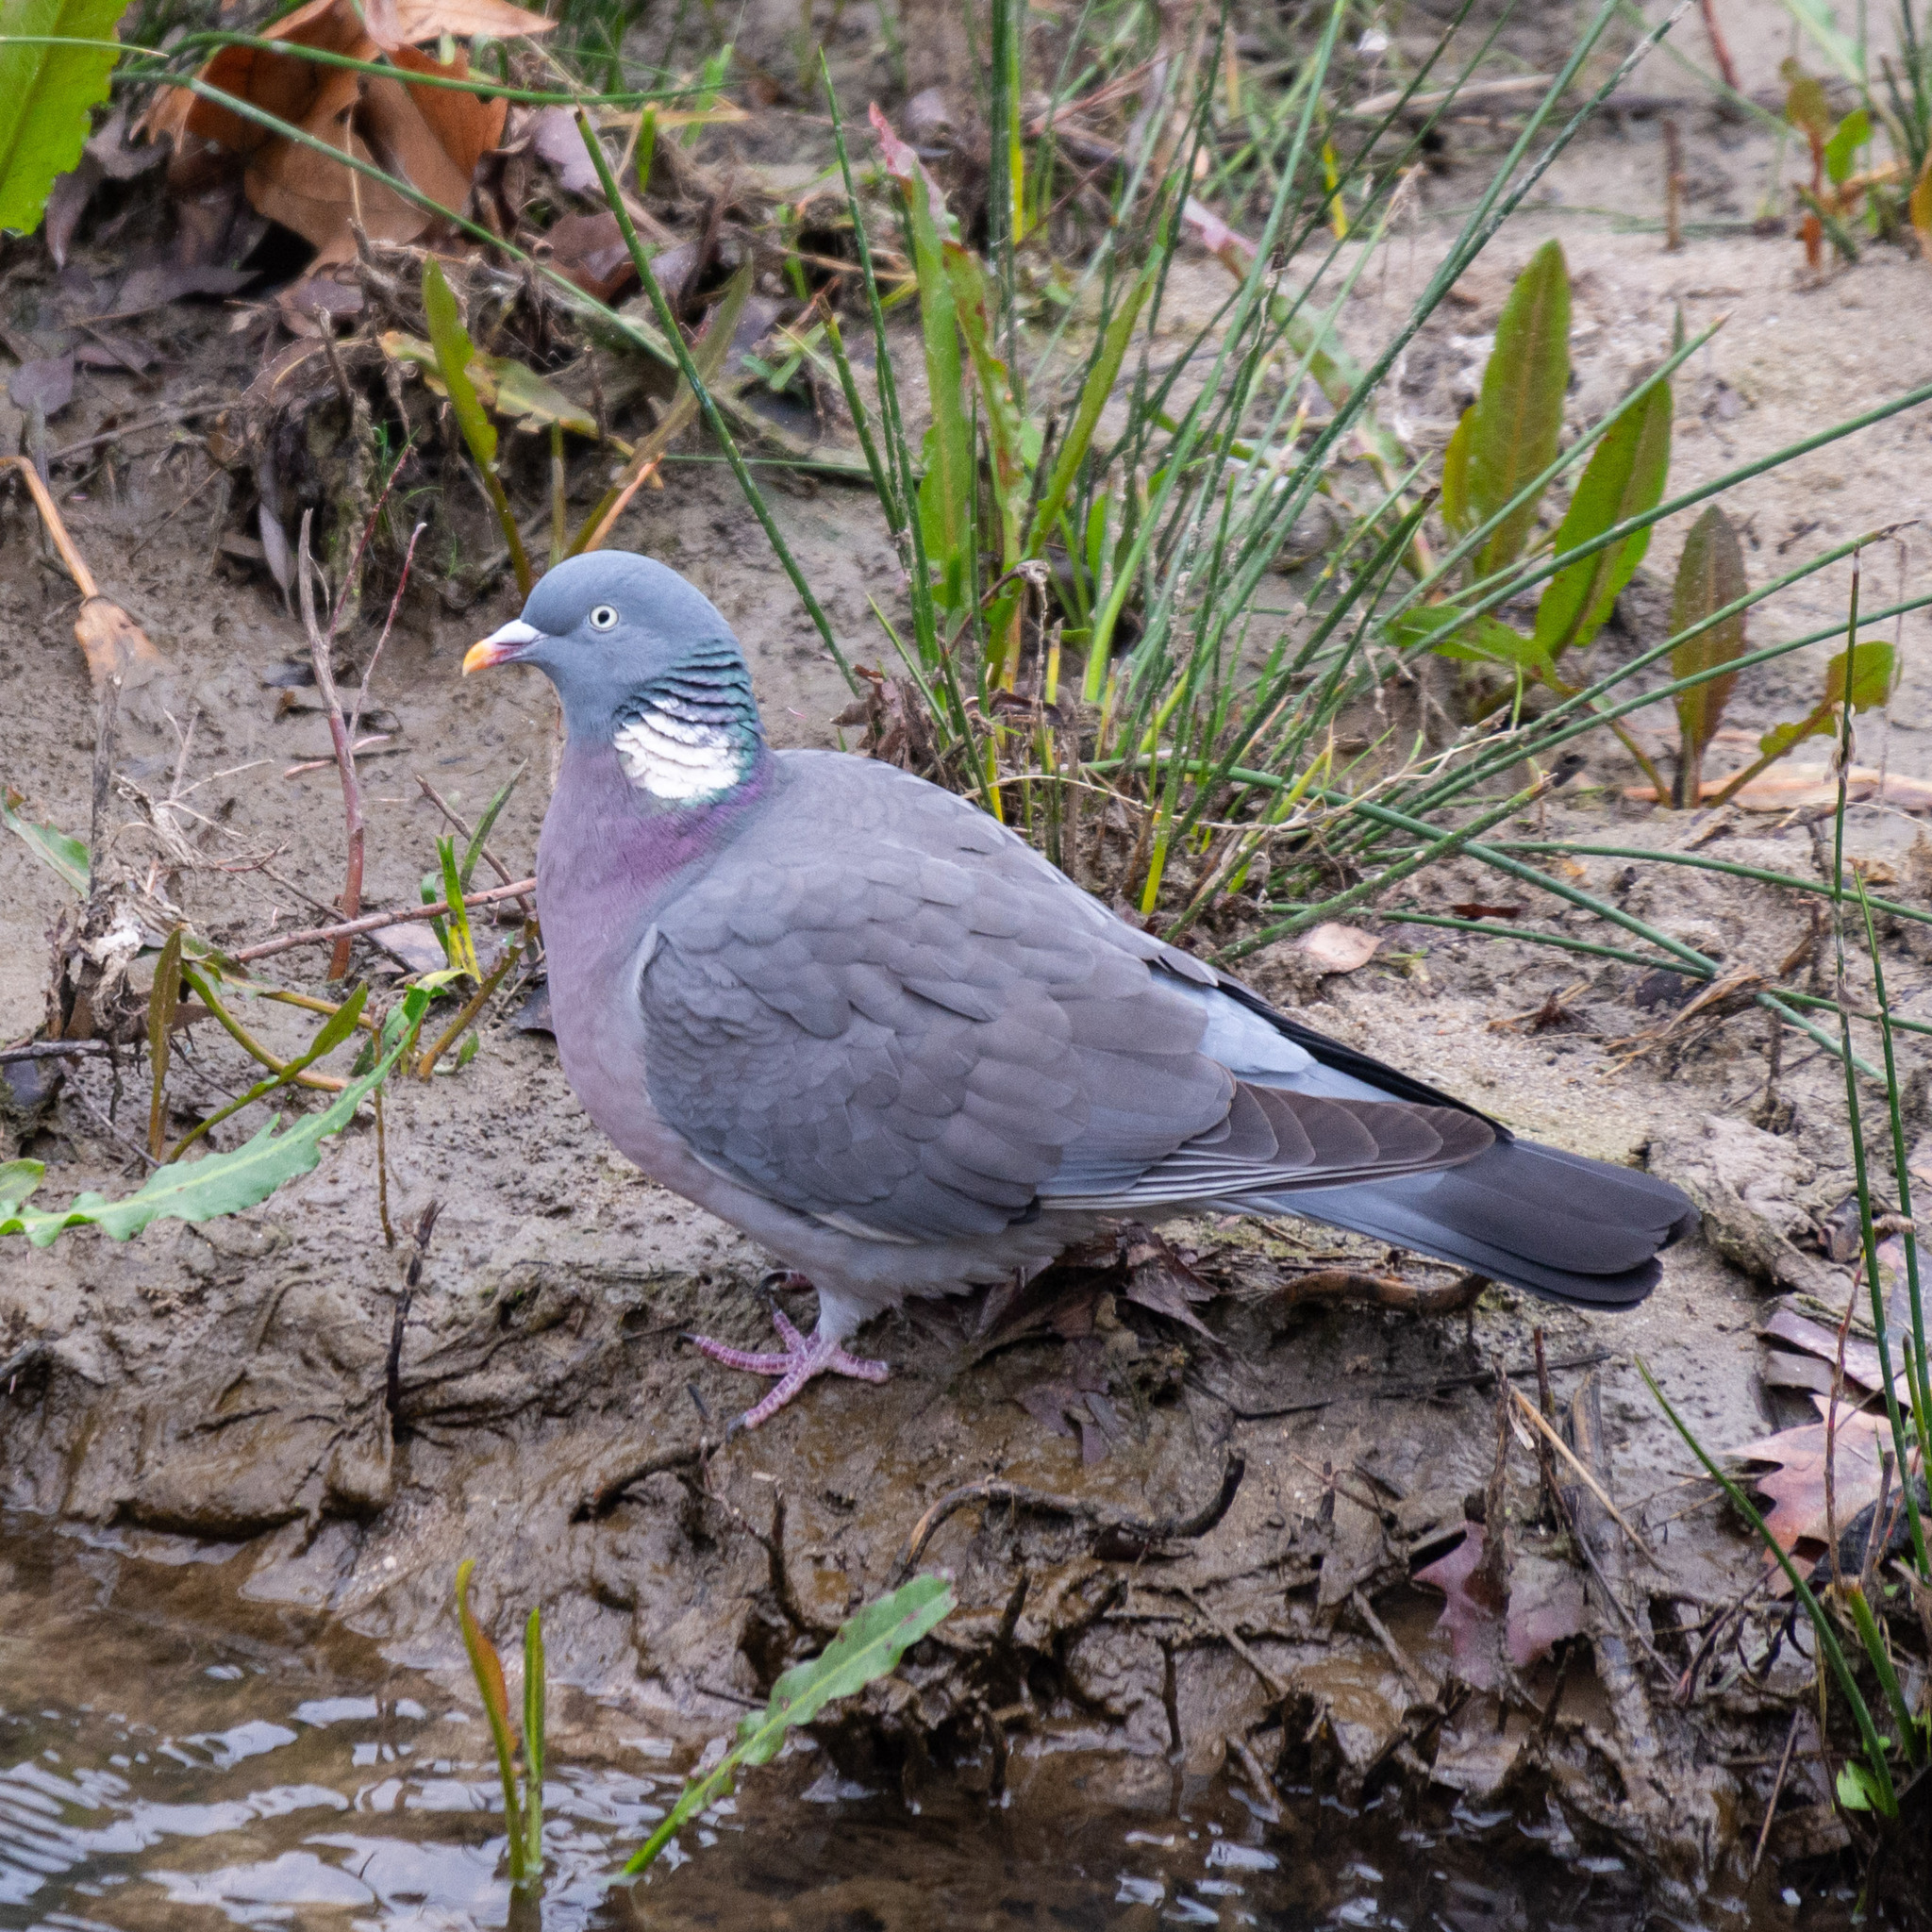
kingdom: Animalia
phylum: Chordata
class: Aves
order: Columbiformes
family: Columbidae
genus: Columba
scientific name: Columba palumbus
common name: Common wood pigeon
